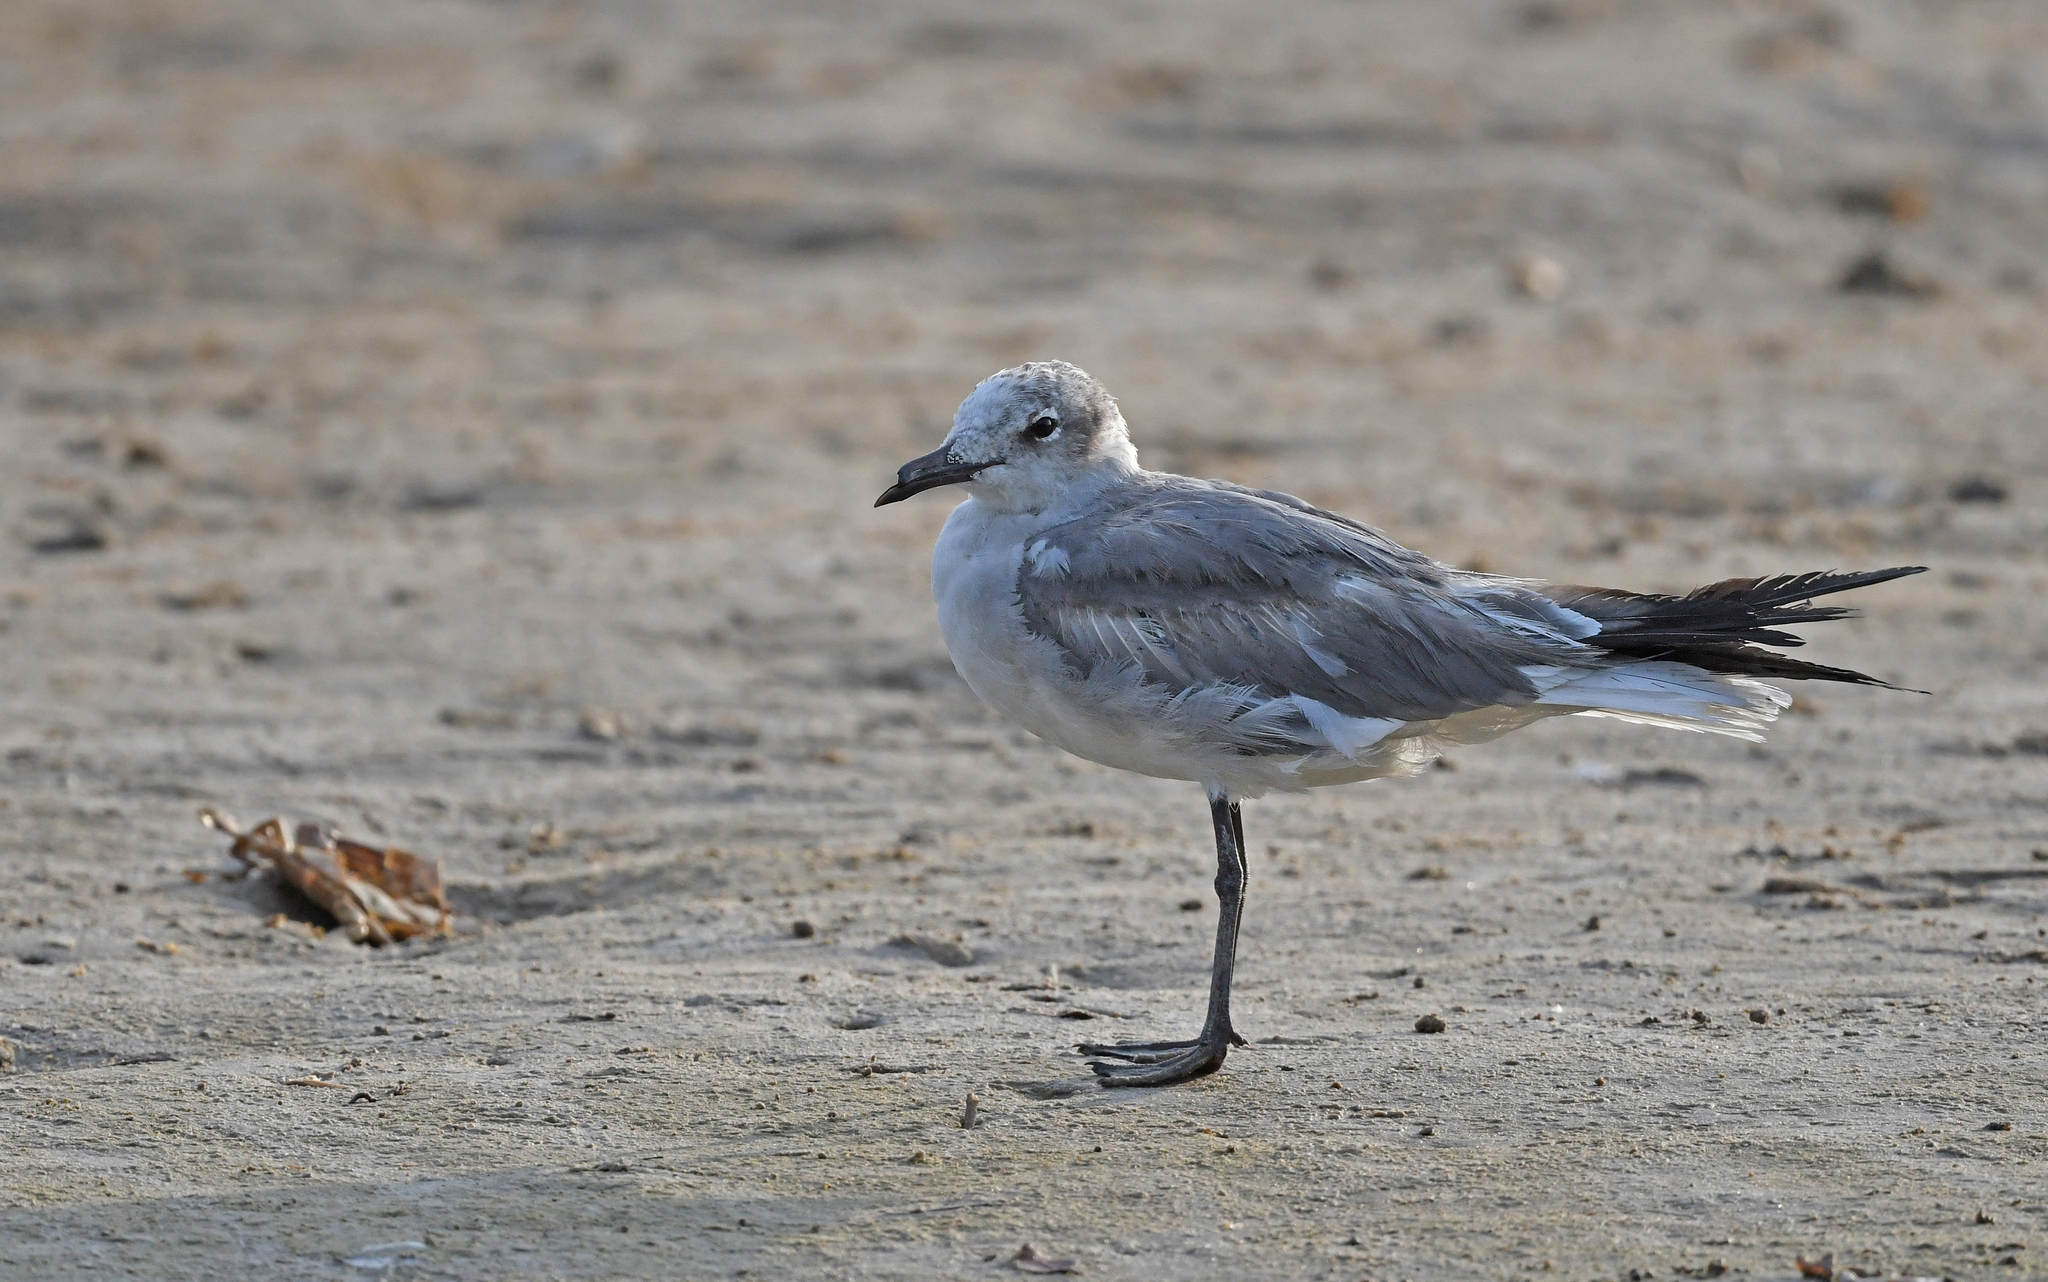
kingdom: Animalia
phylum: Chordata
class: Aves
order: Charadriiformes
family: Laridae
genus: Leucophaeus
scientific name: Leucophaeus atricilla
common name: Laughing gull
